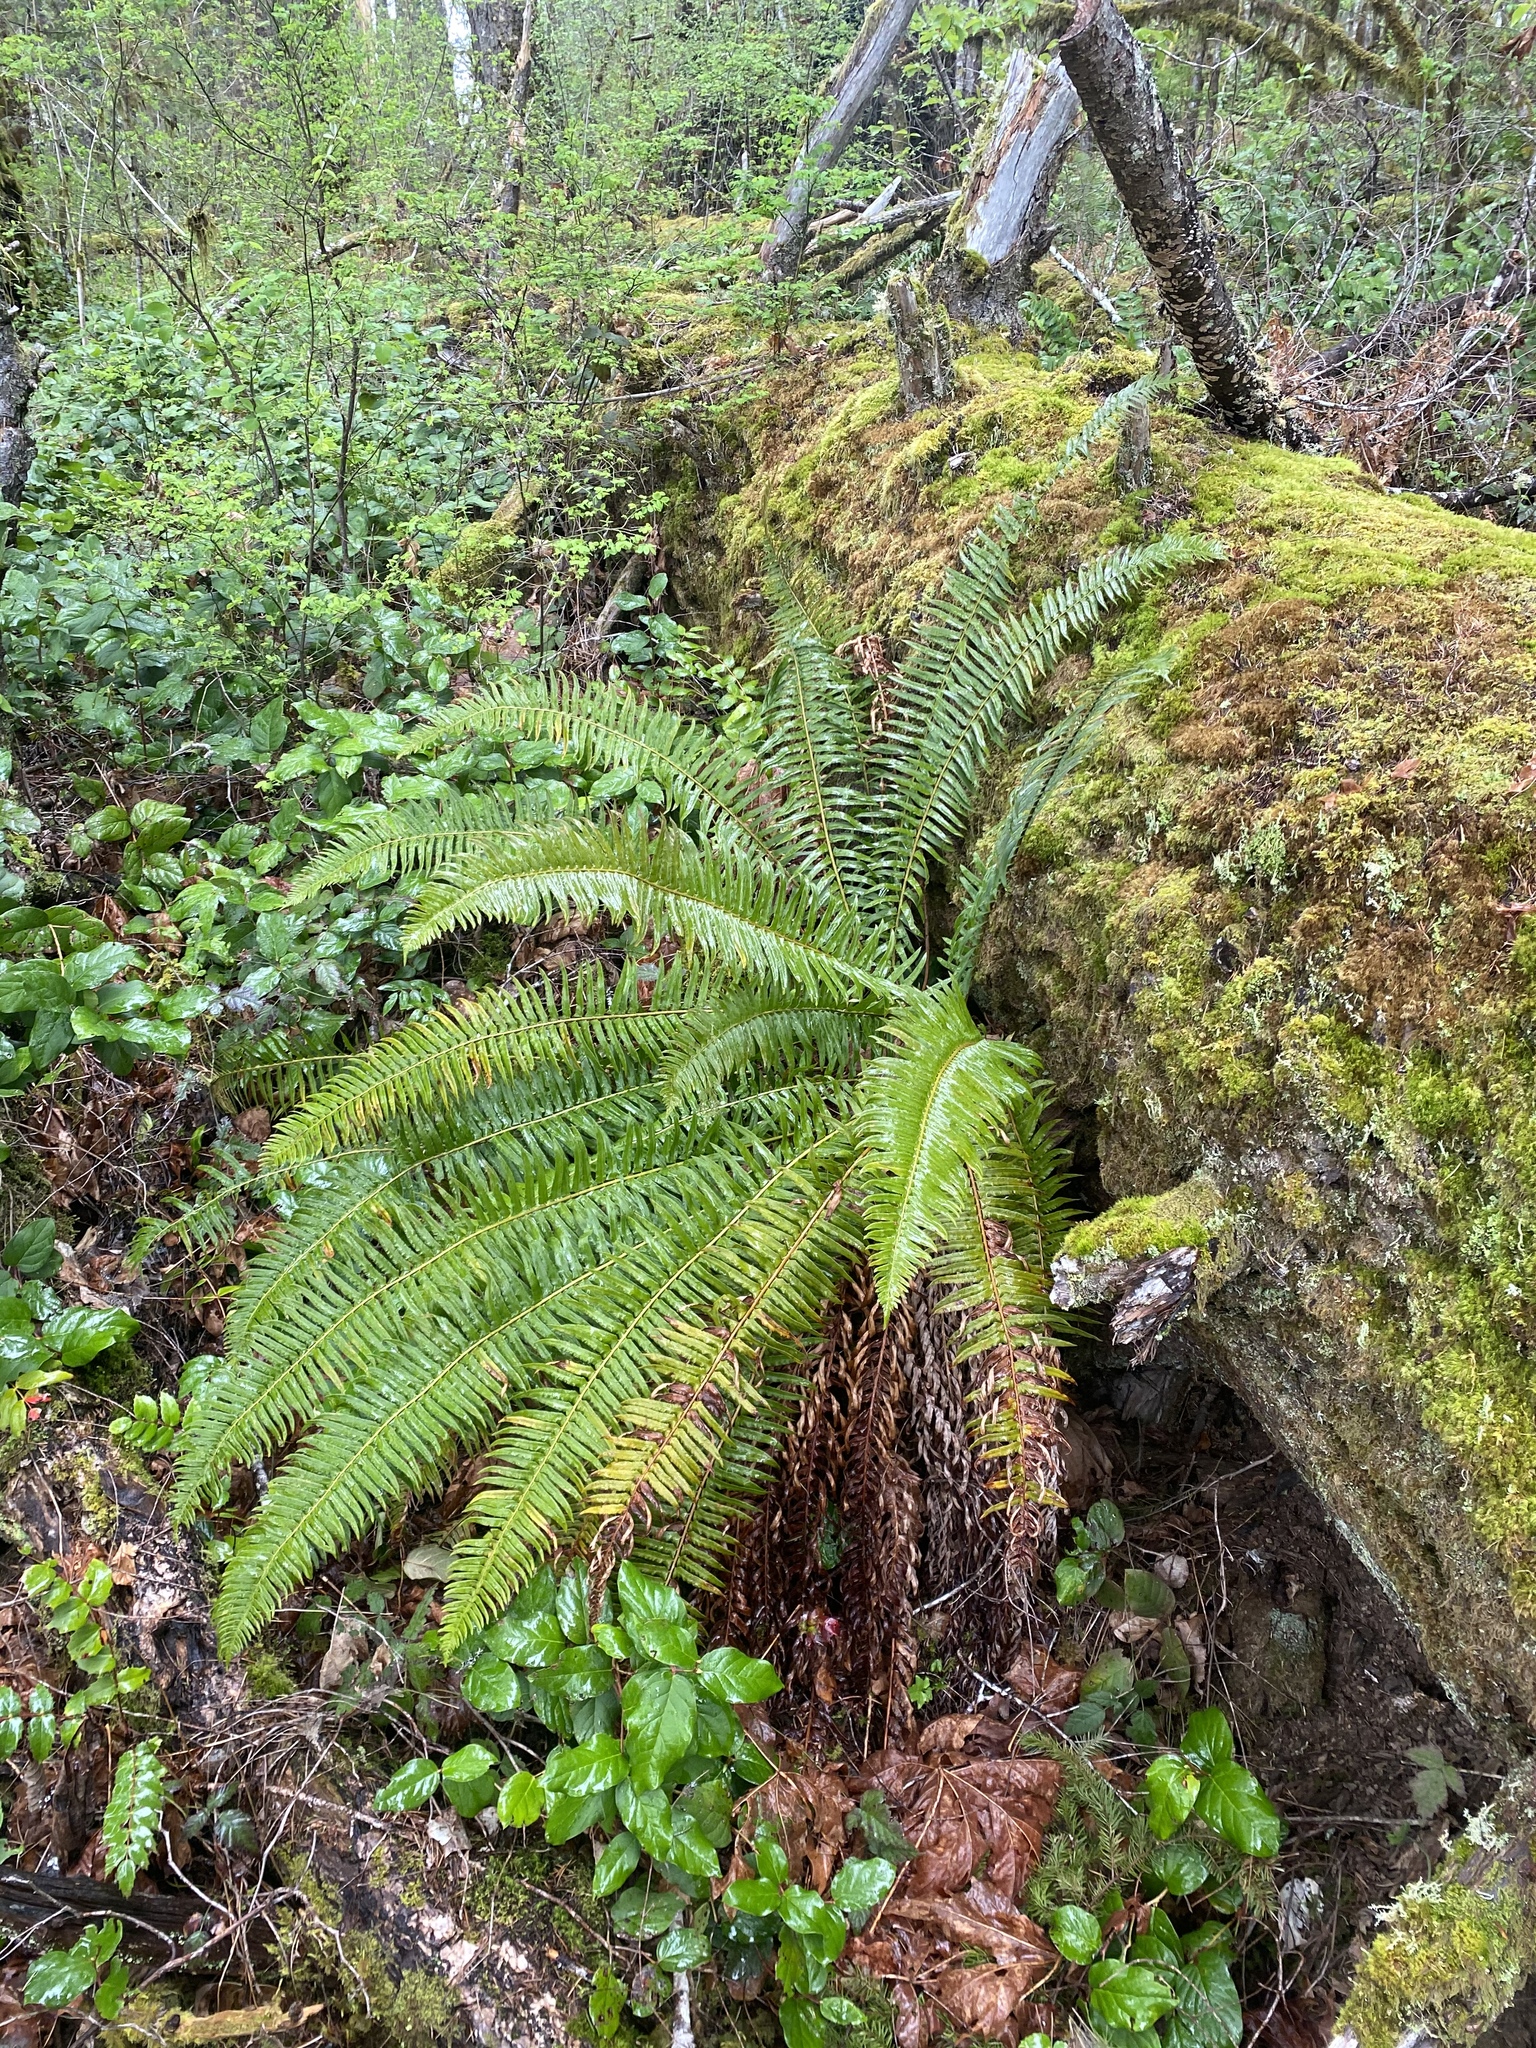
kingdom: Plantae
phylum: Tracheophyta
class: Polypodiopsida
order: Polypodiales
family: Dryopteridaceae
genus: Polystichum
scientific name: Polystichum munitum
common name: Western sword-fern
